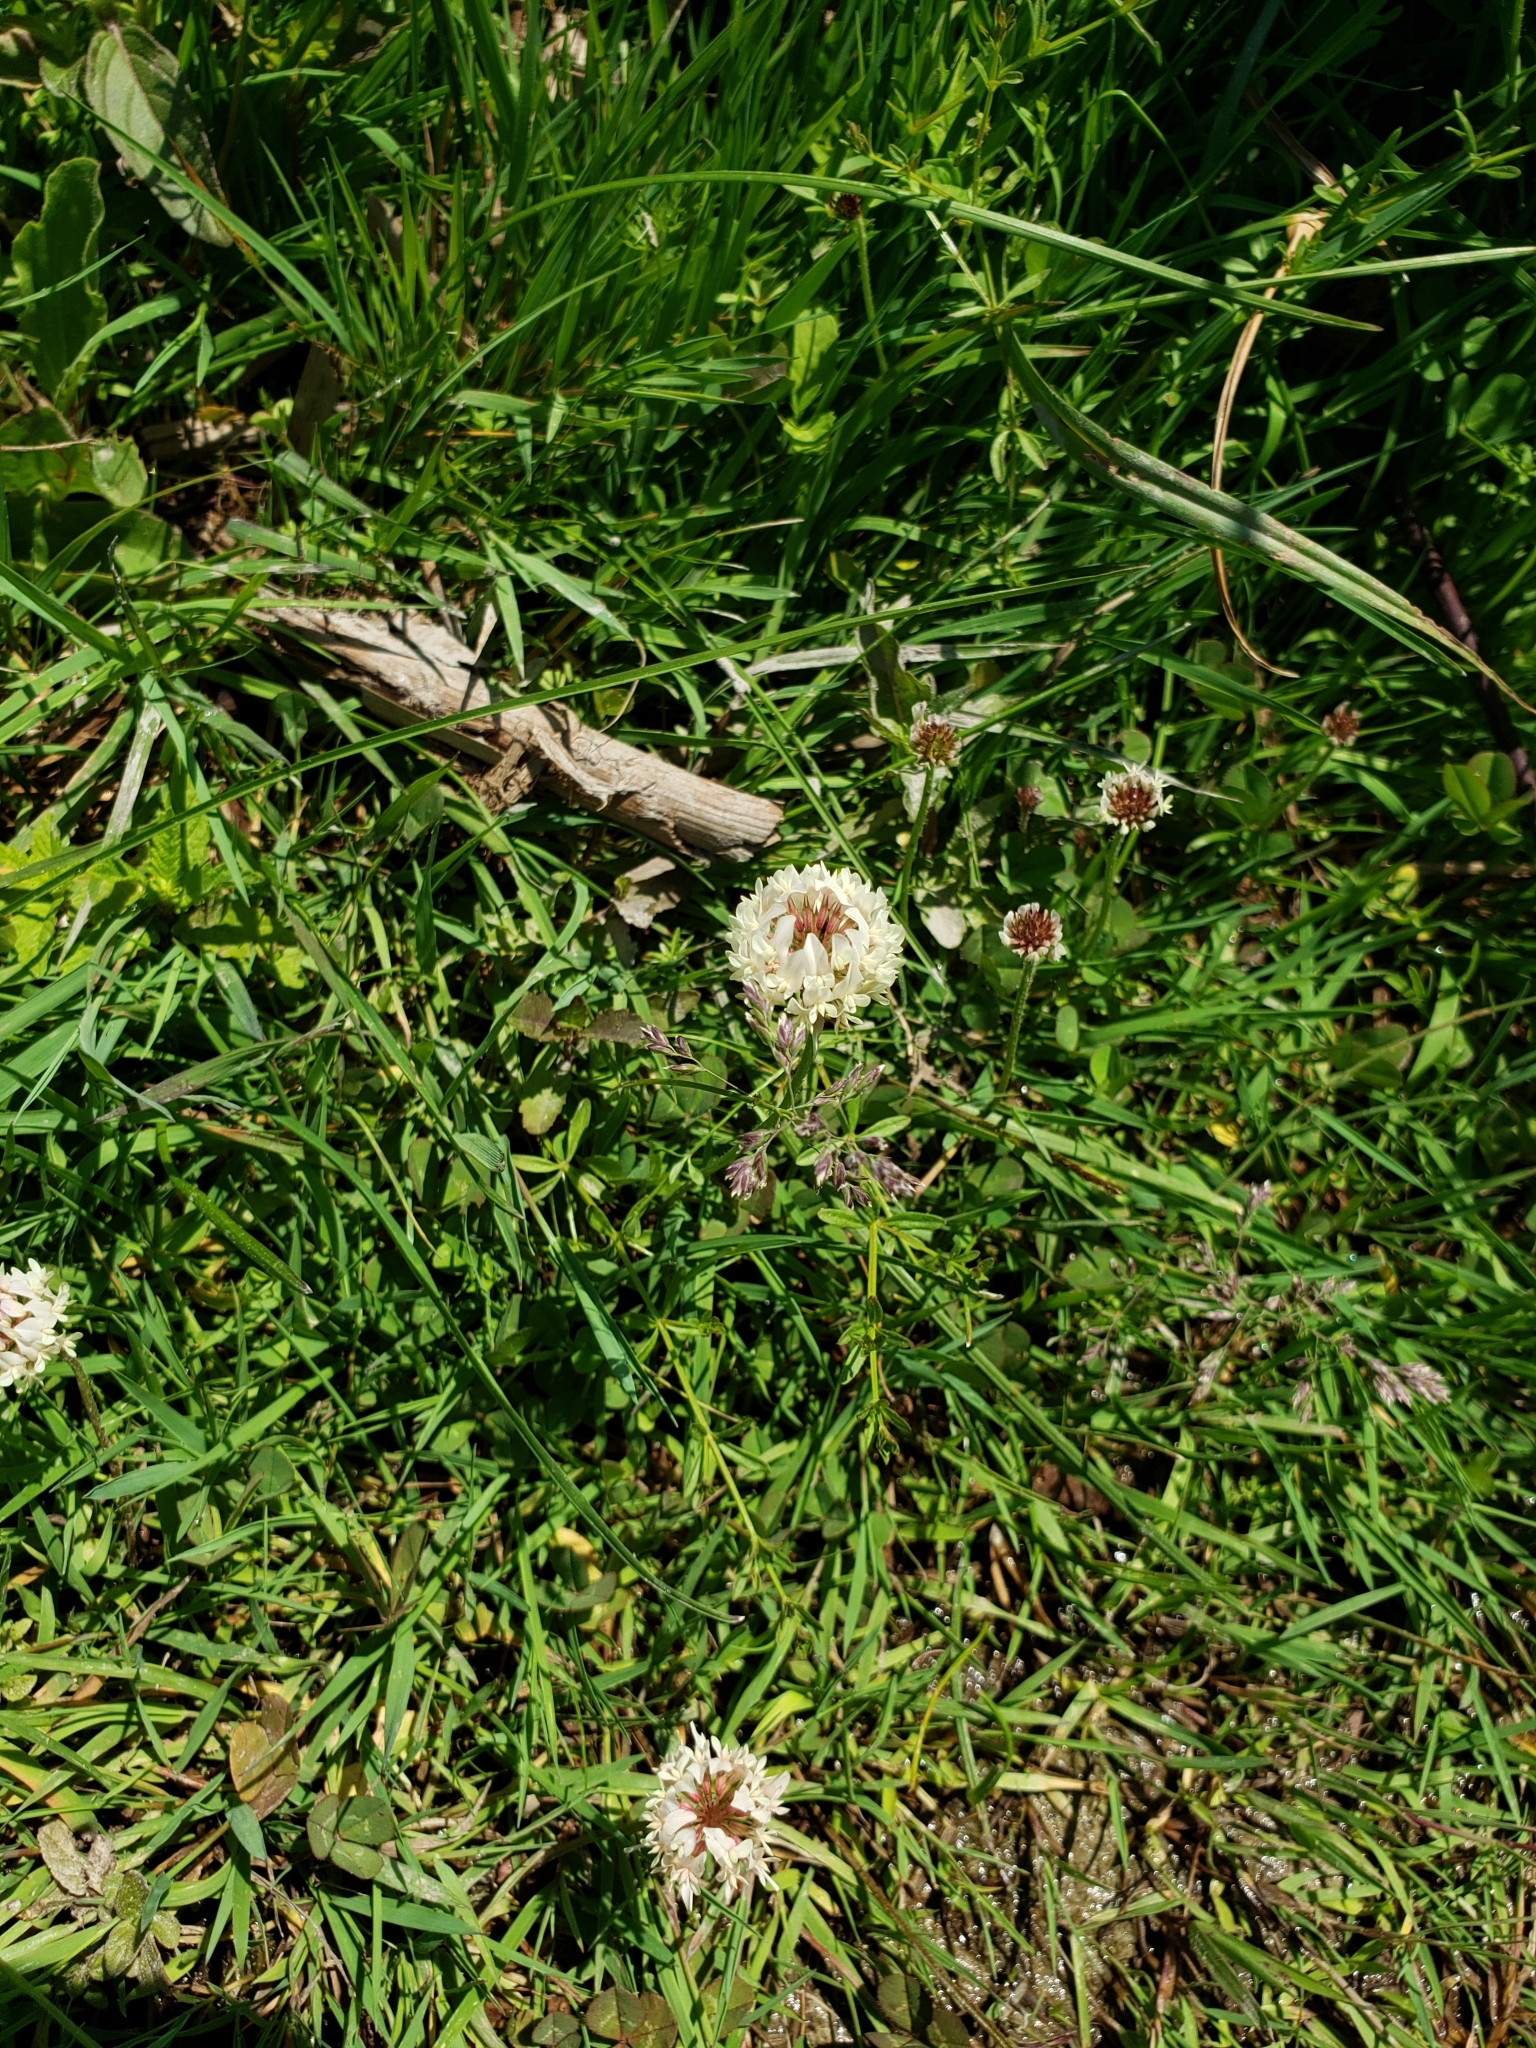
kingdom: Plantae
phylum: Tracheophyta
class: Magnoliopsida
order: Fabales
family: Fabaceae
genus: Trifolium
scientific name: Trifolium repens
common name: White clover
